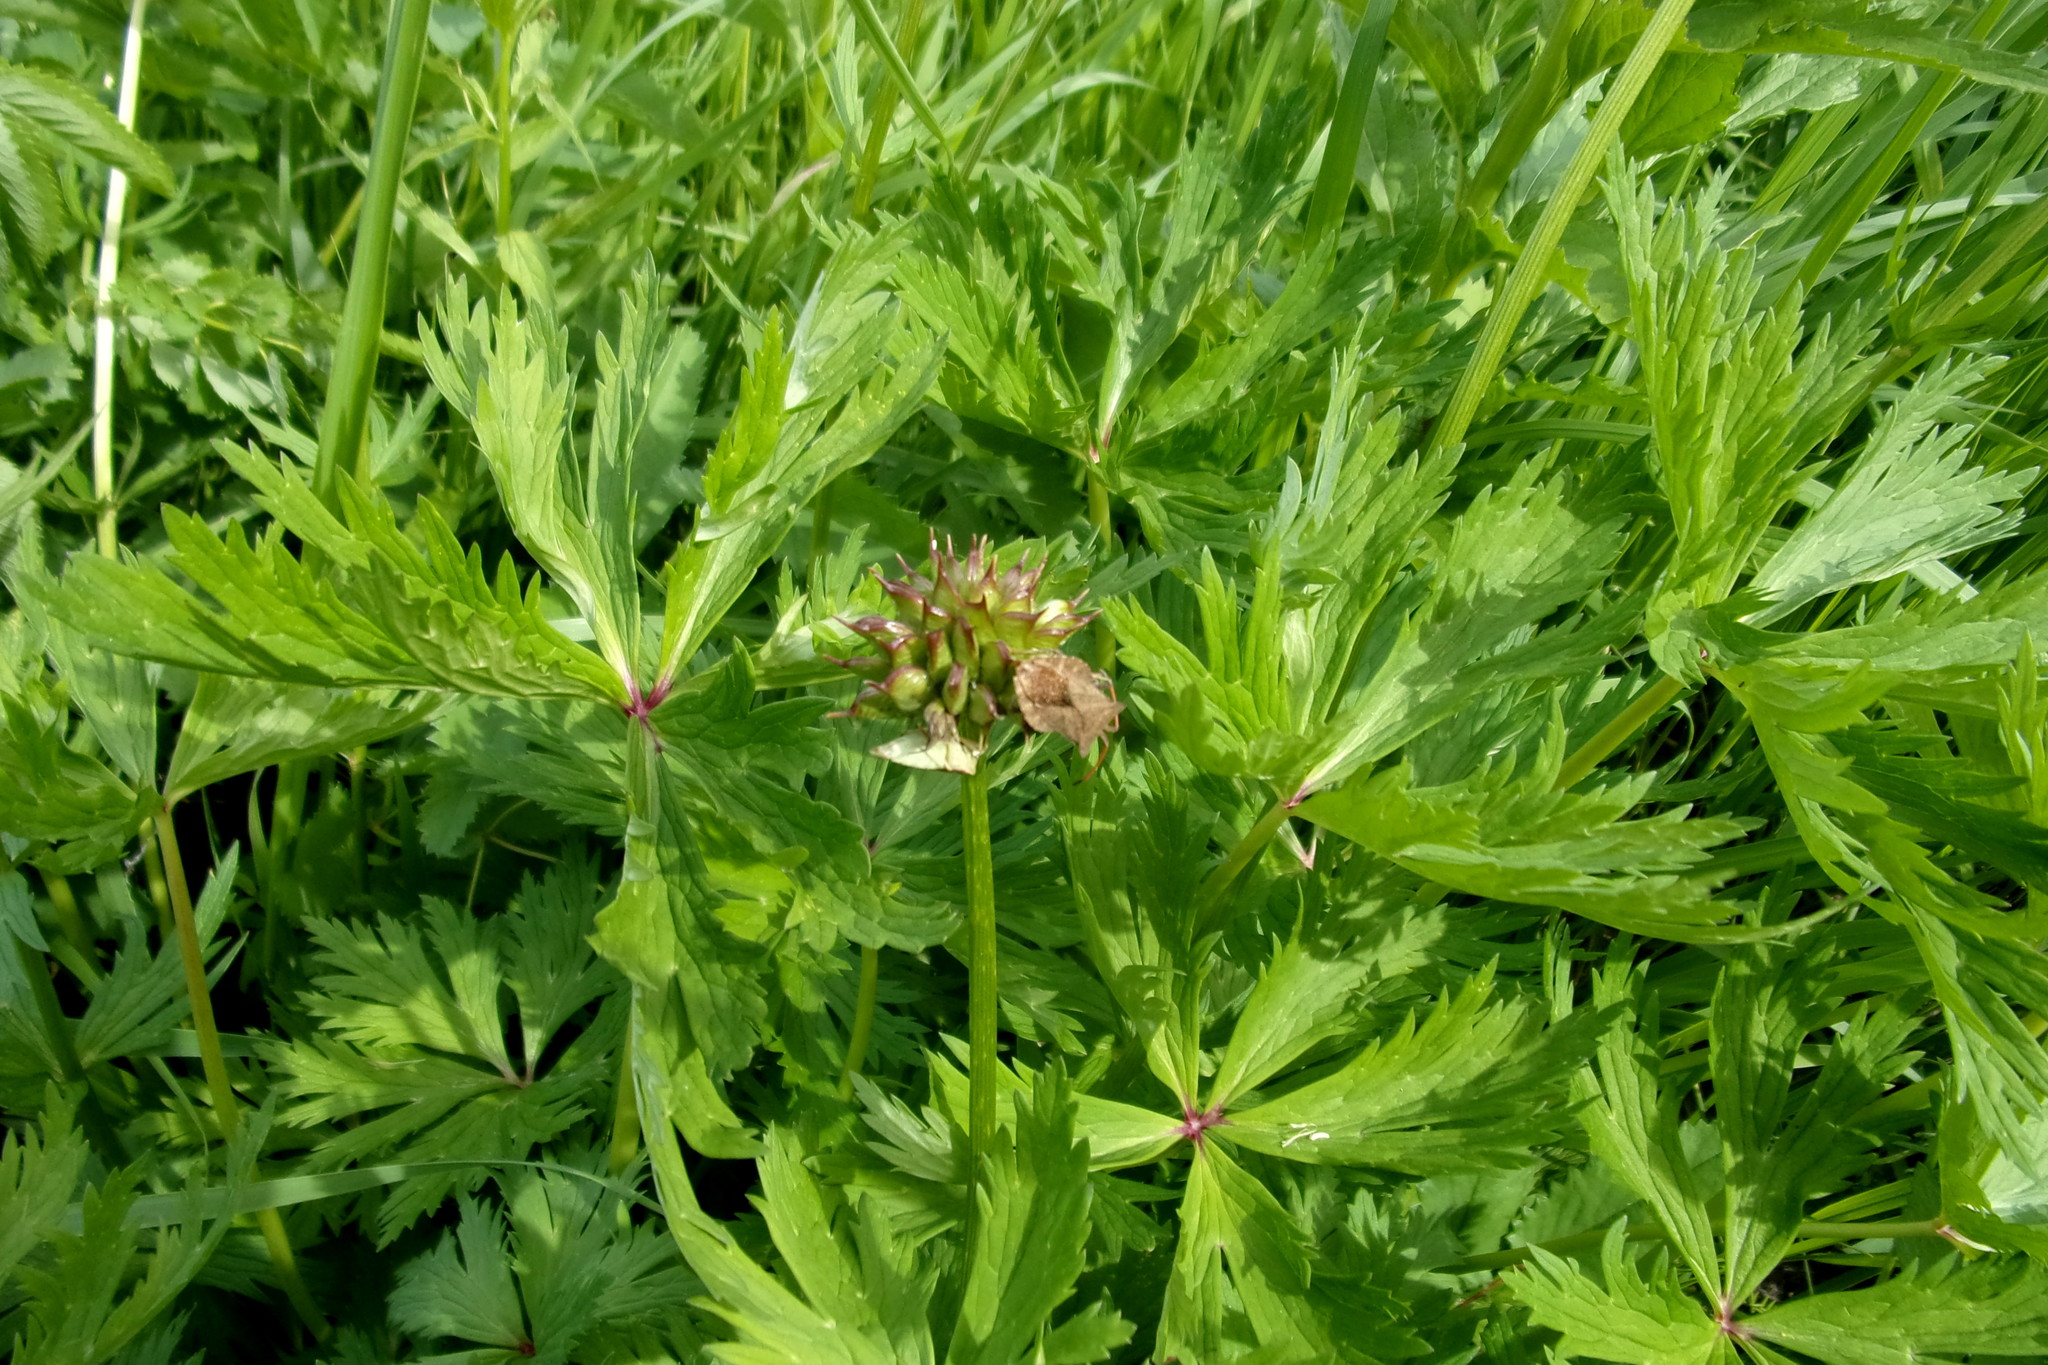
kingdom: Plantae
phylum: Tracheophyta
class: Magnoliopsida
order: Ranunculales
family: Ranunculaceae
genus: Trollius
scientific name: Trollius asiaticus
